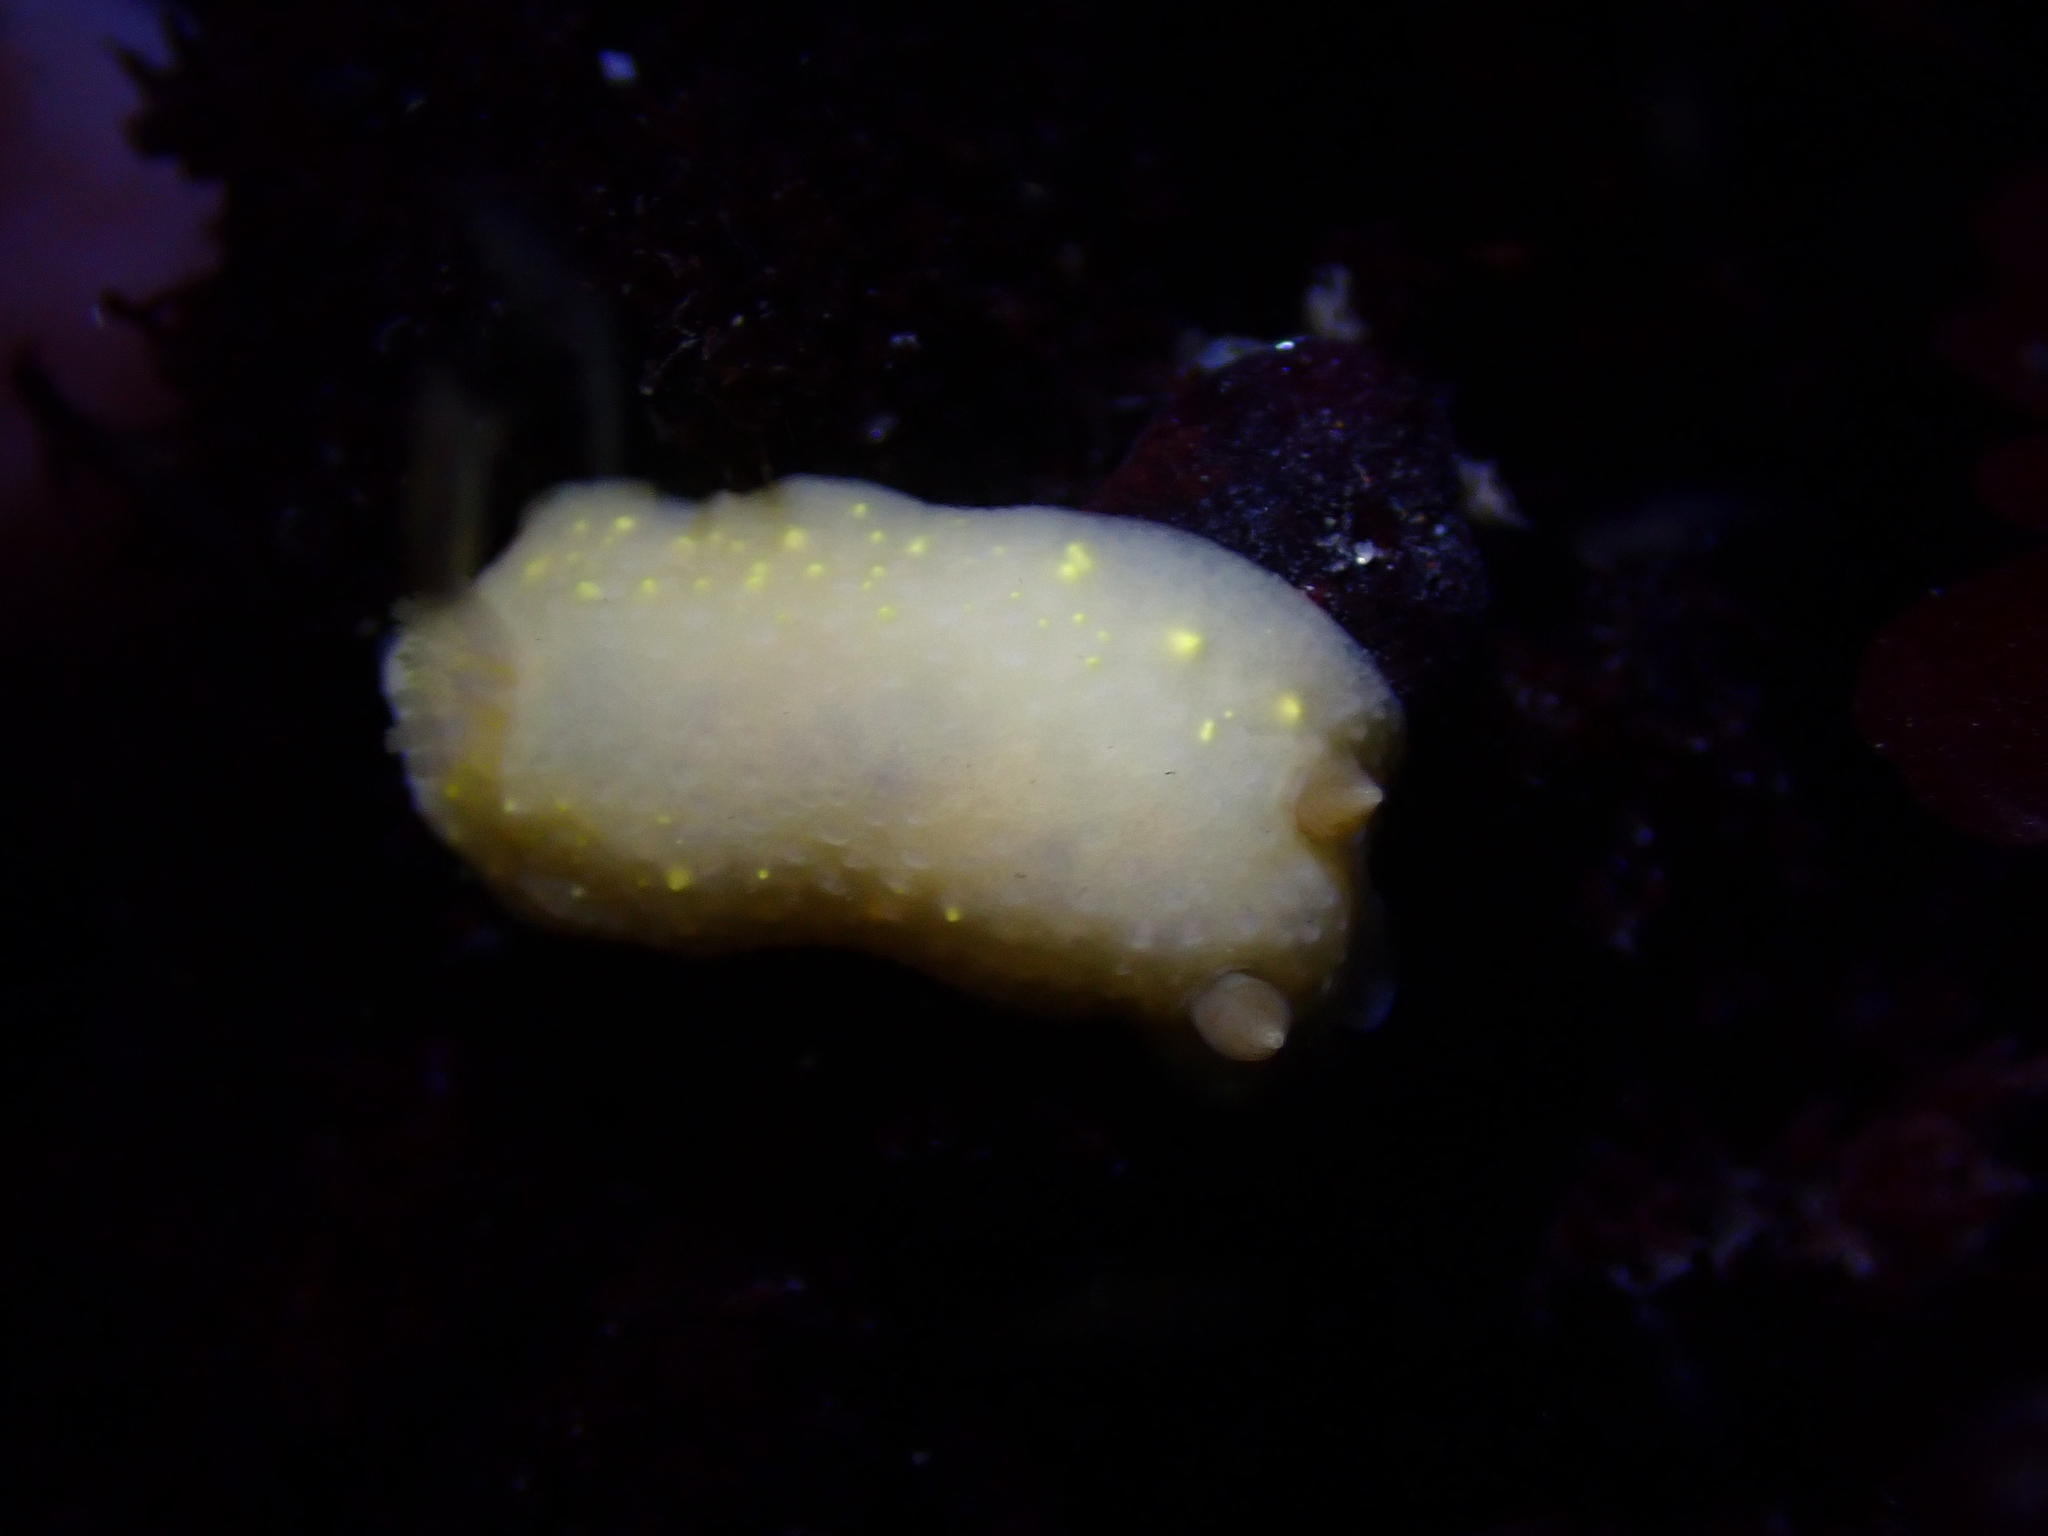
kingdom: Animalia
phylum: Mollusca
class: Gastropoda
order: Nudibranchia
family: Cadlinidae
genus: Cadlina
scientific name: Cadlina modesta
